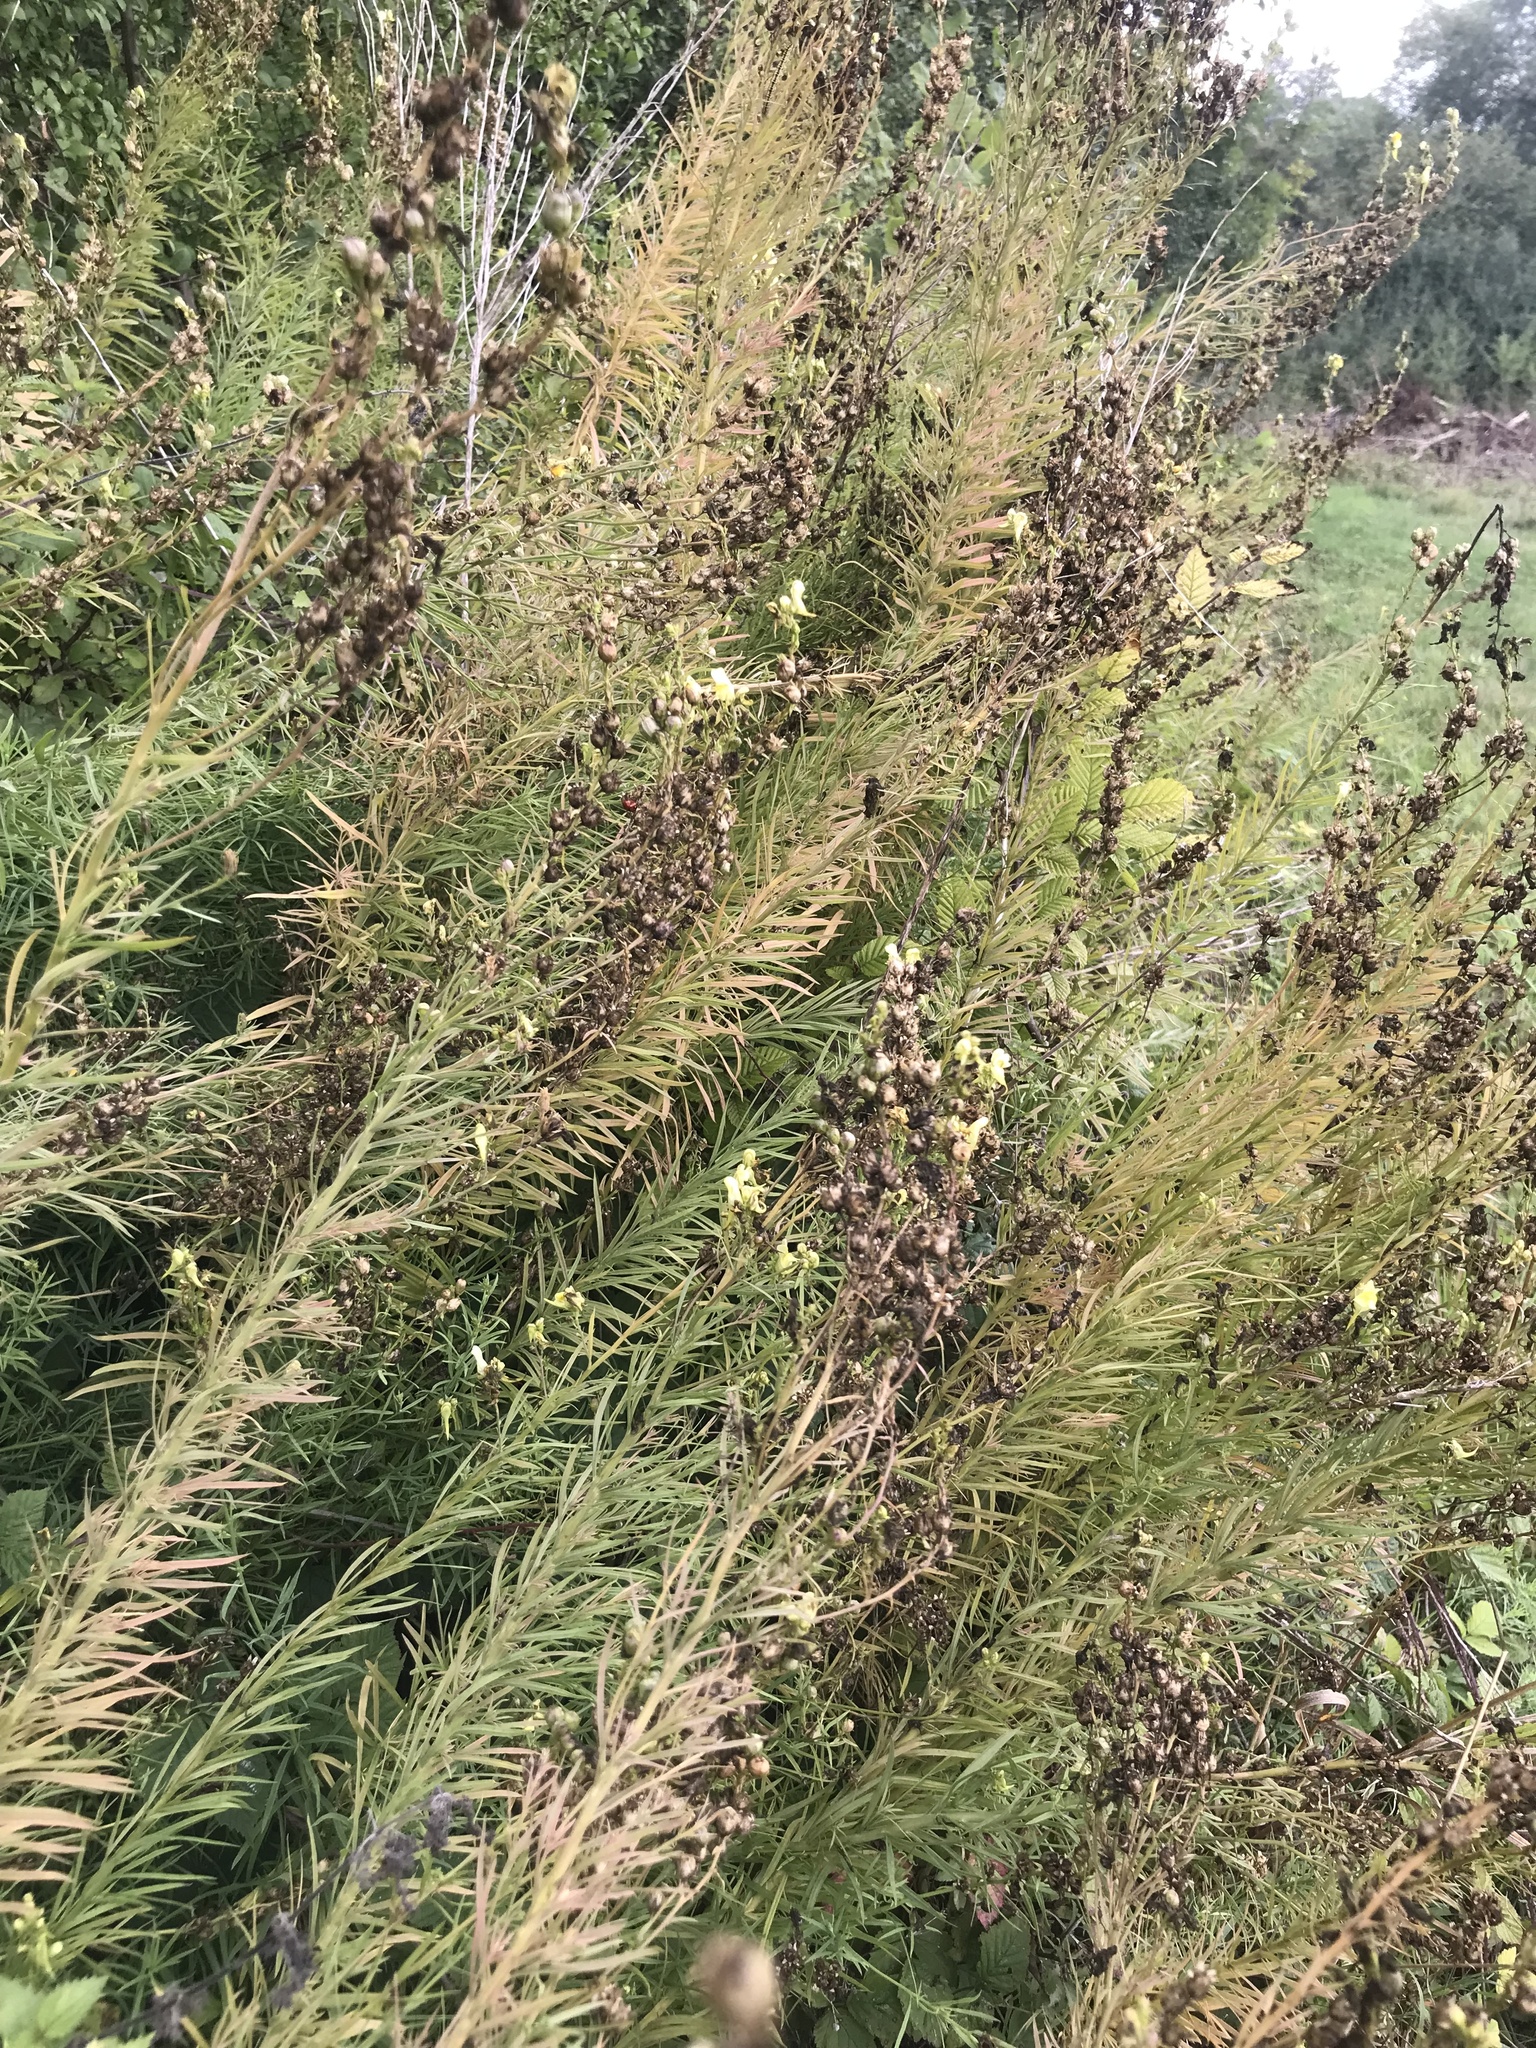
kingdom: Plantae
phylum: Tracheophyta
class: Magnoliopsida
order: Lamiales
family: Plantaginaceae
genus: Linaria
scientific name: Linaria vulgaris
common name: Butter and eggs
